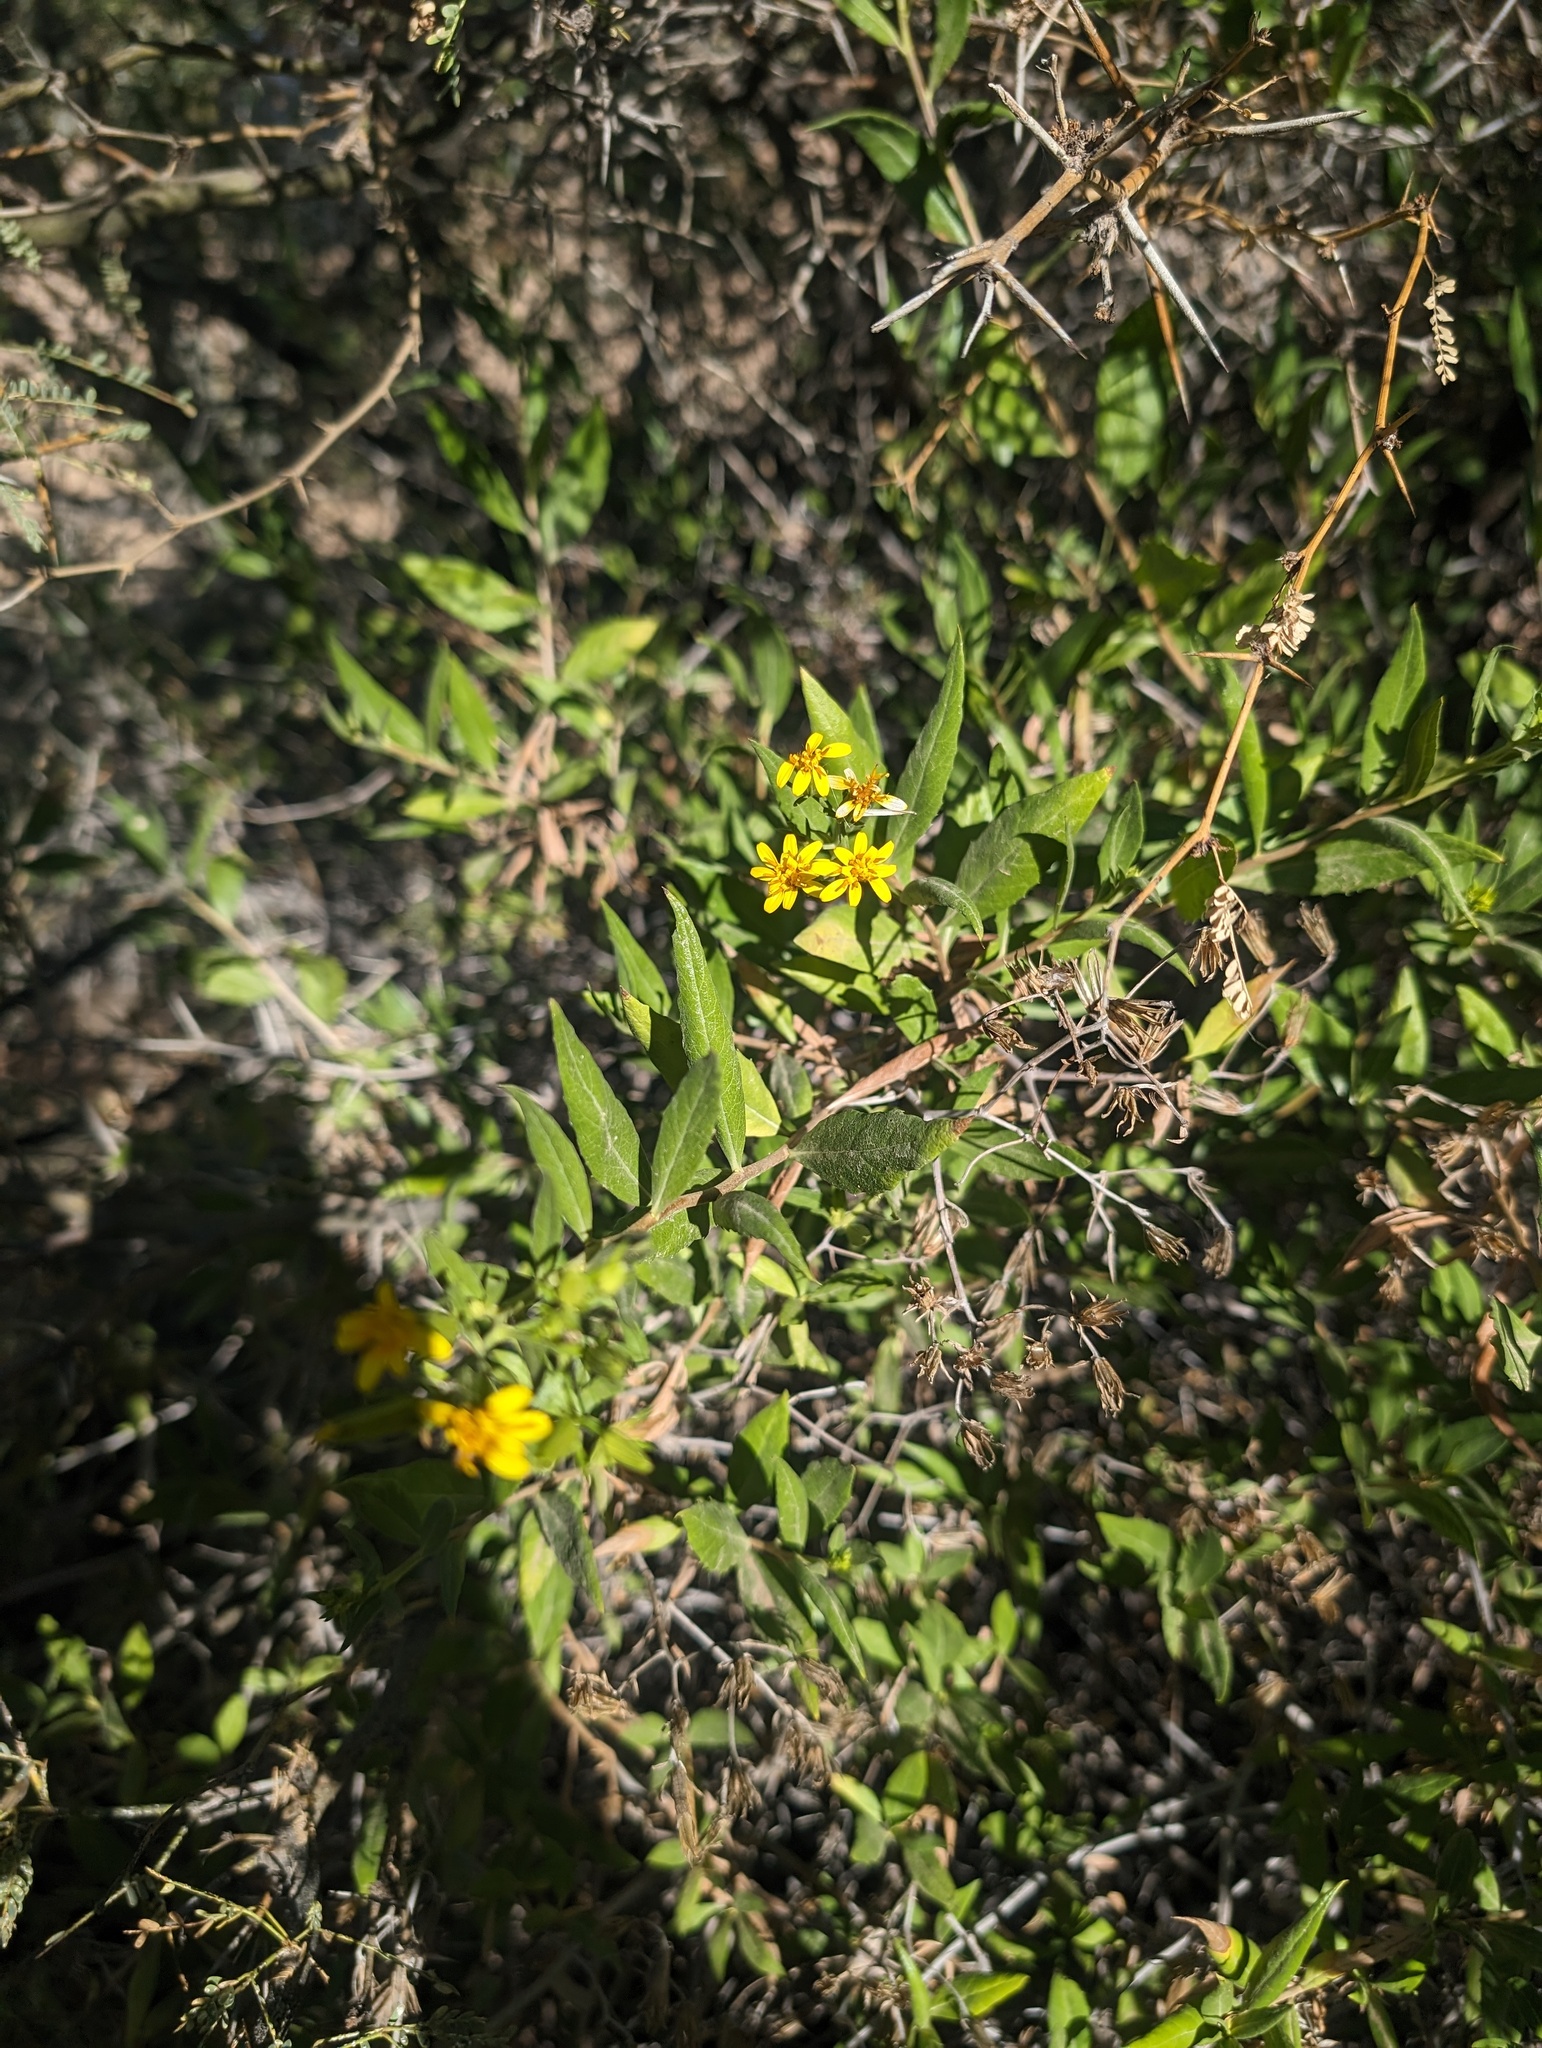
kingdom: Plantae
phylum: Tracheophyta
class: Magnoliopsida
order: Asterales
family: Asteraceae
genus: Trixis
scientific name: Trixis californica
